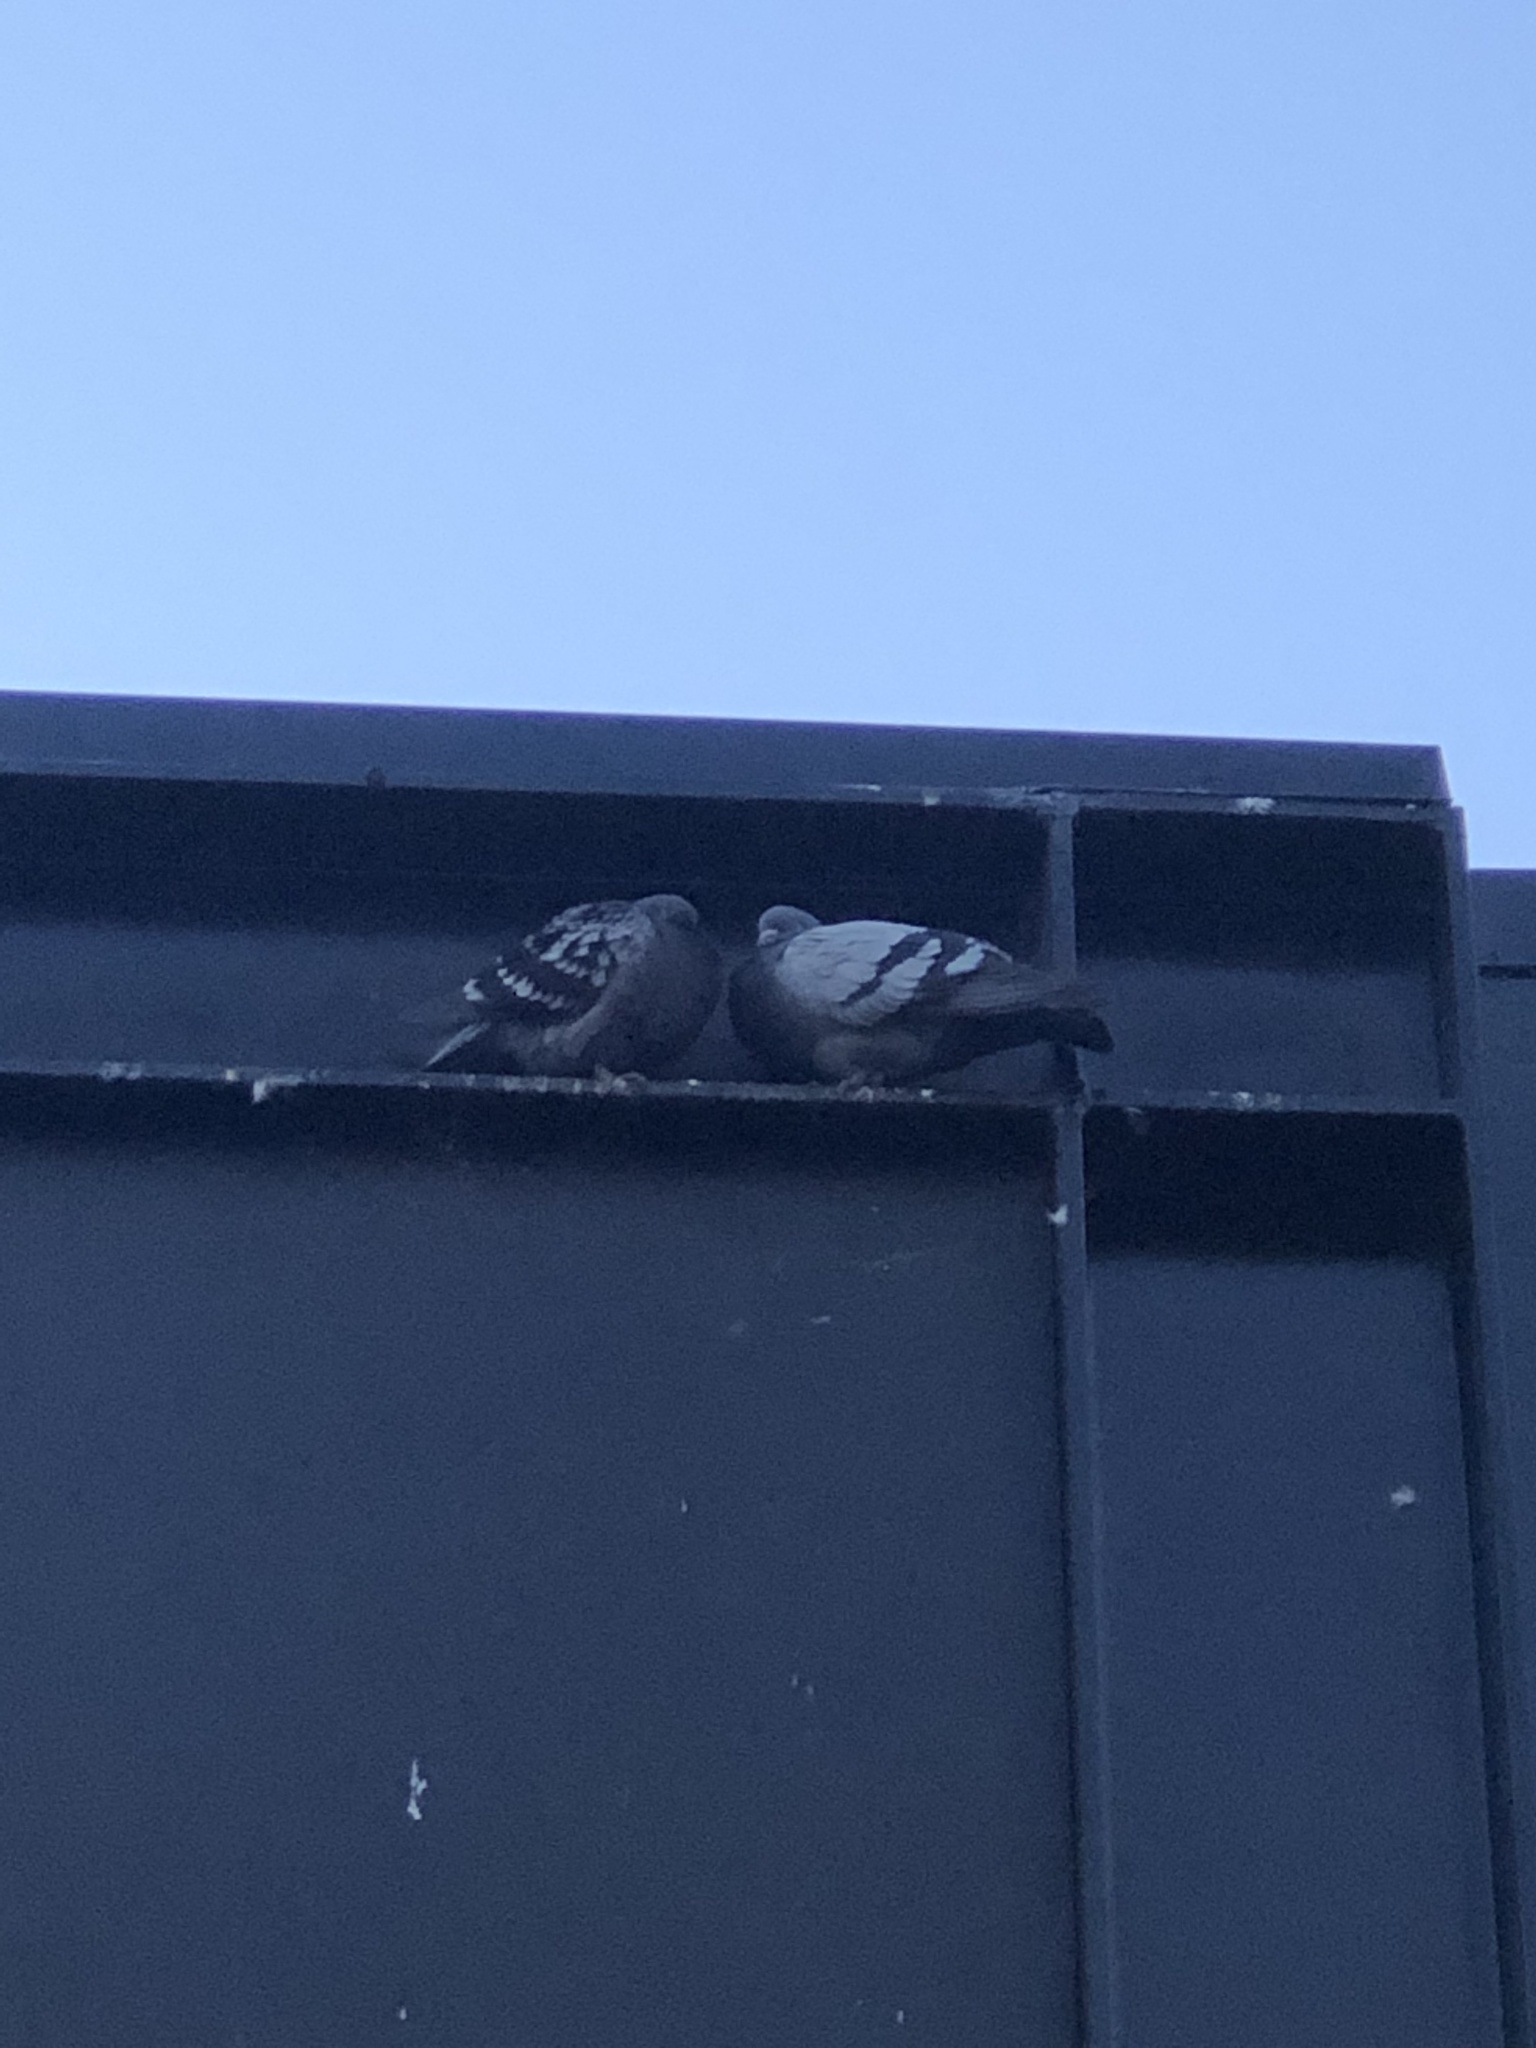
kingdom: Animalia
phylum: Chordata
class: Aves
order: Columbiformes
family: Columbidae
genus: Columba
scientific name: Columba livia
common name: Rock pigeon
